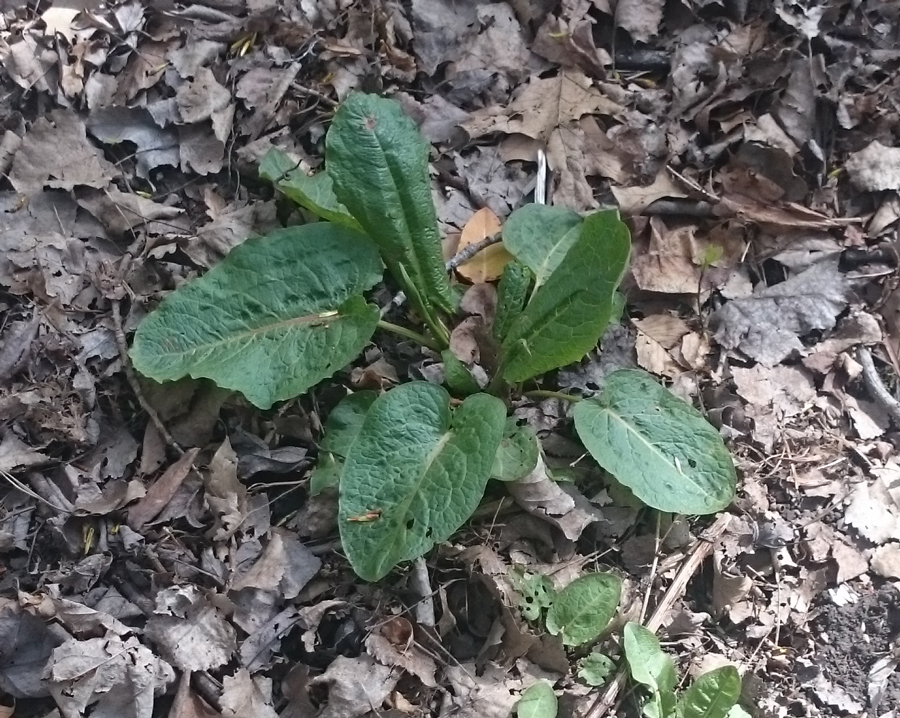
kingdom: Plantae
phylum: Tracheophyta
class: Magnoliopsida
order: Caryophyllales
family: Polygonaceae
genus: Rumex
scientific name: Rumex obtusifolius
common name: Bitter dock
